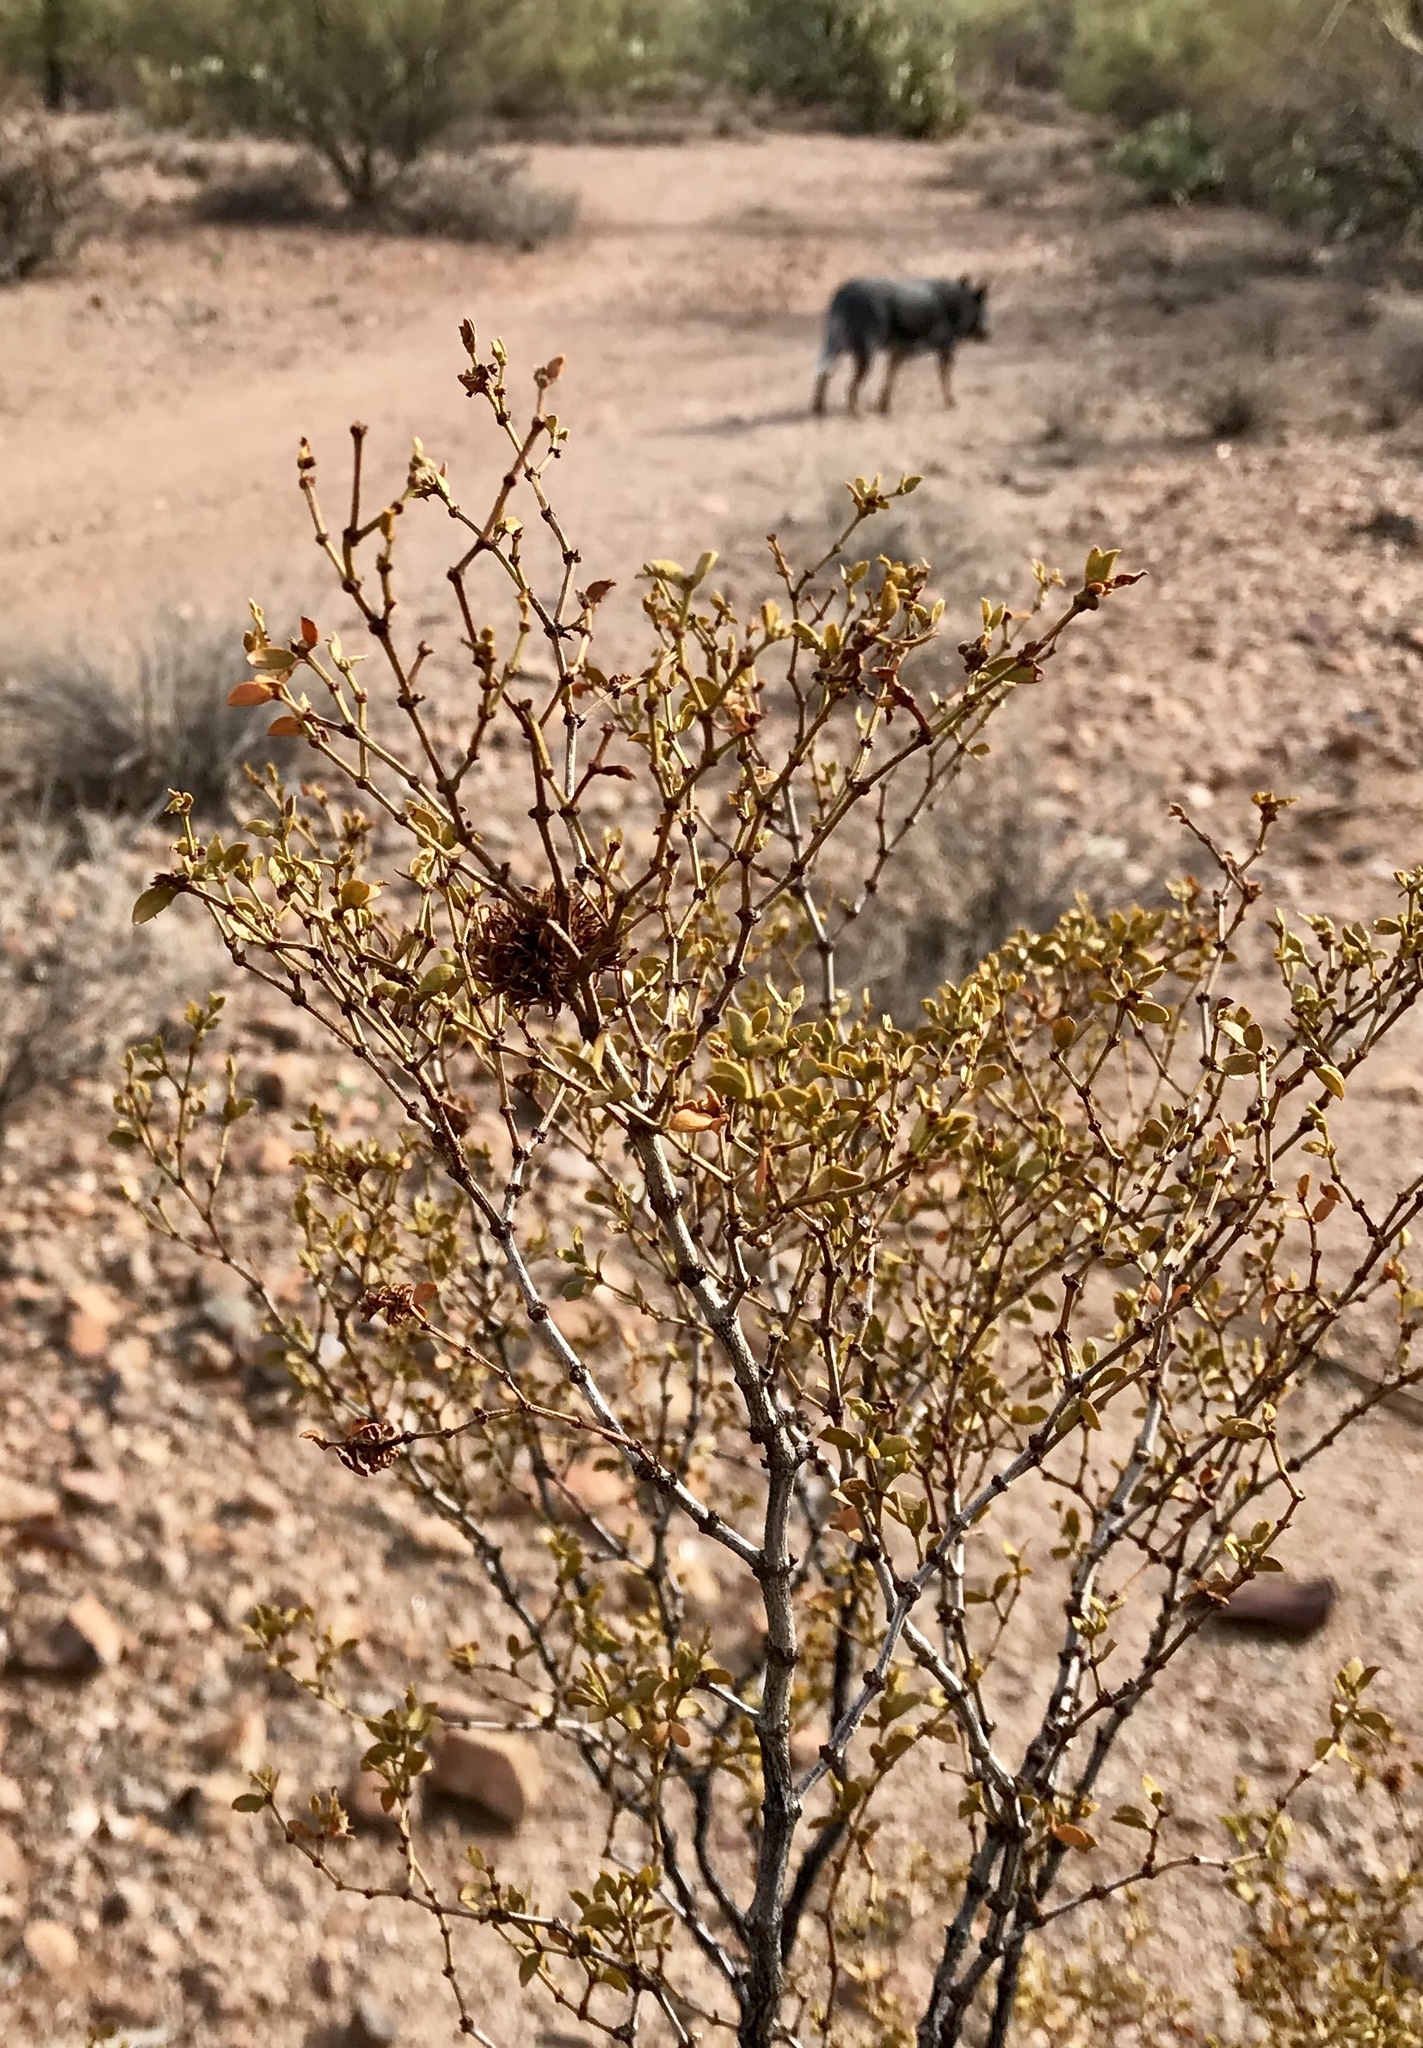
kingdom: Animalia
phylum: Arthropoda
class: Insecta
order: Diptera
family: Cecidomyiidae
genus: Asphondylia
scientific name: Asphondylia auripila
